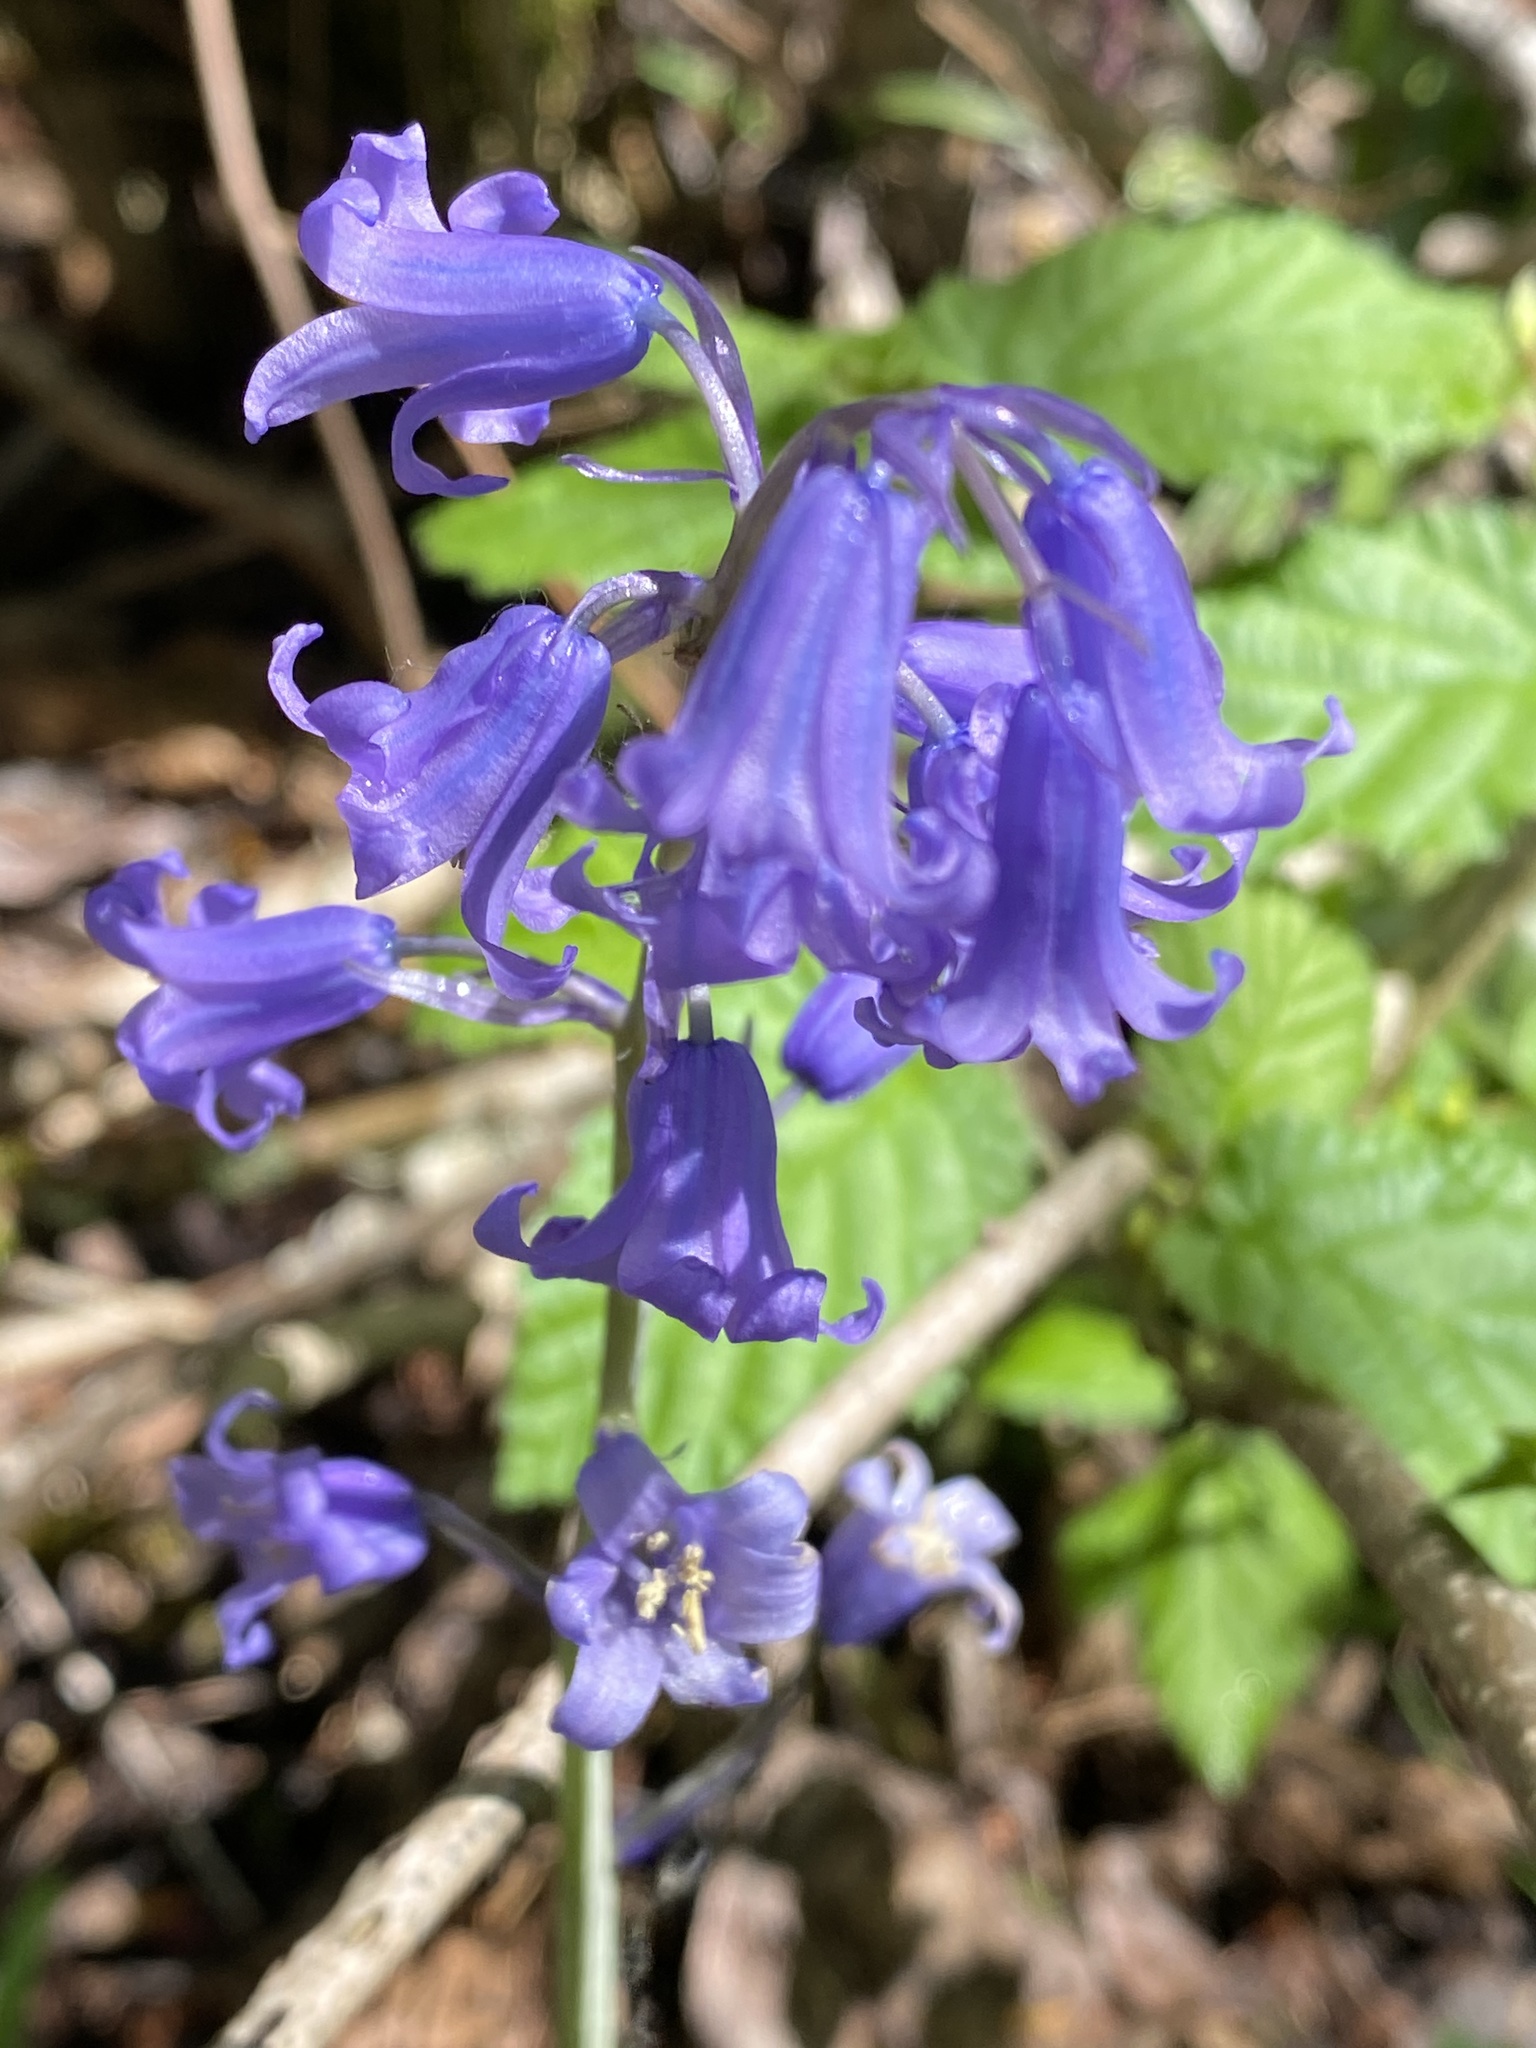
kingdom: Plantae
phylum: Tracheophyta
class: Liliopsida
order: Asparagales
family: Asparagaceae
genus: Hyacinthoides
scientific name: Hyacinthoides massartiana
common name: Hyacinthoides
